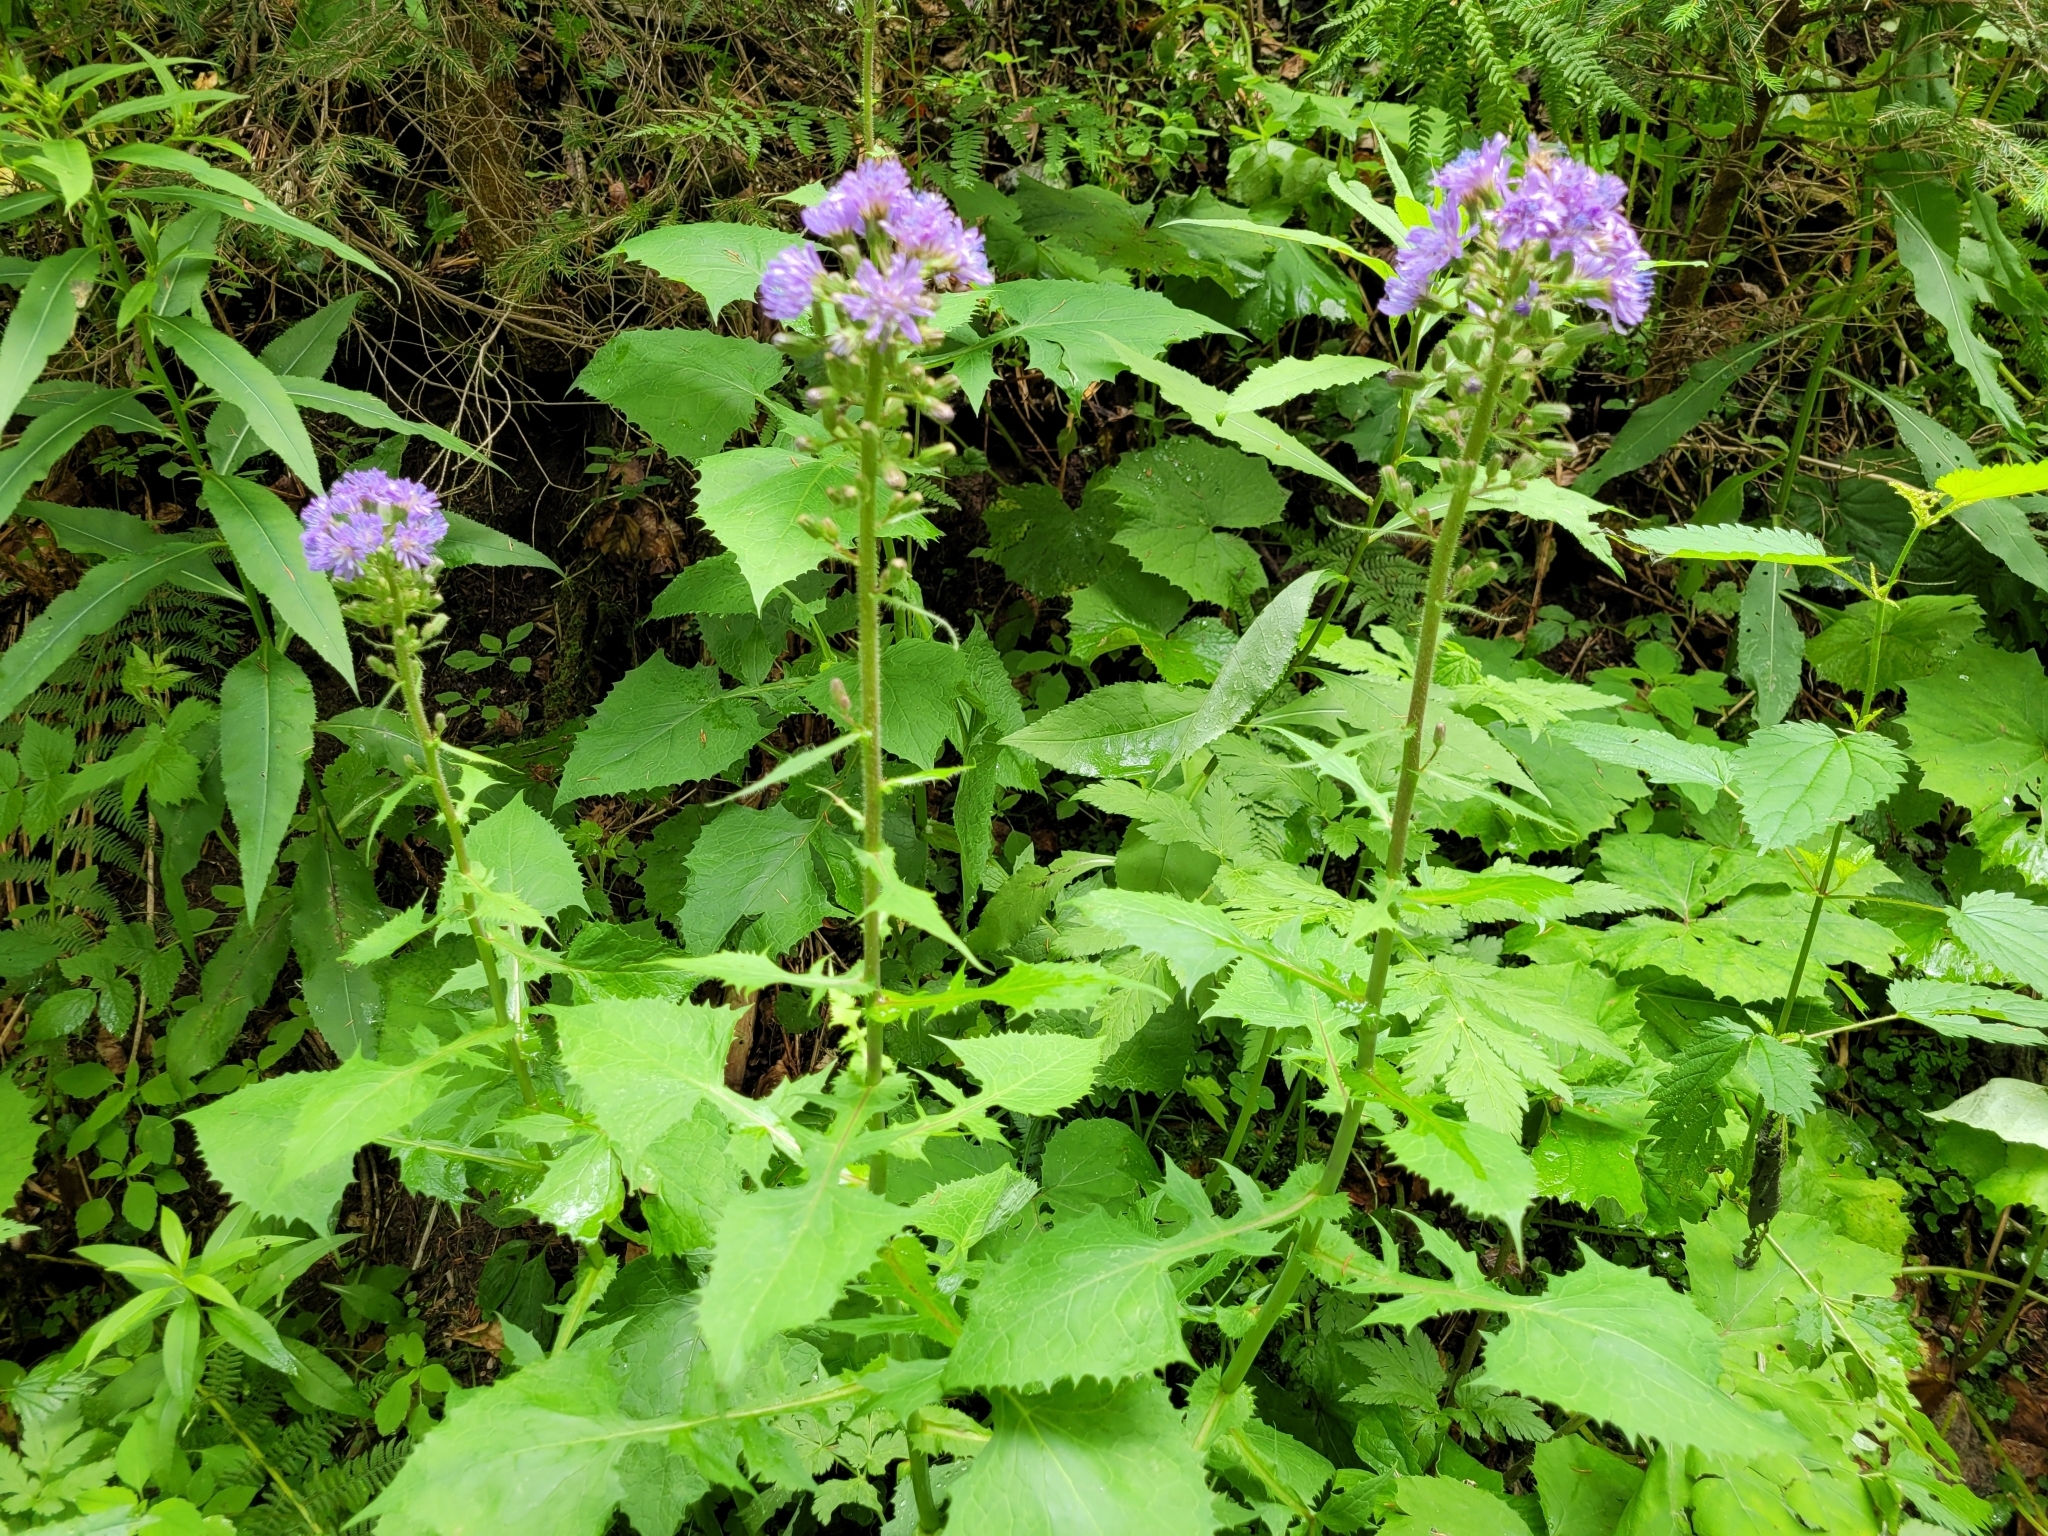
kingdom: Plantae
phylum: Tracheophyta
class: Magnoliopsida
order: Asterales
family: Asteraceae
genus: Cicerbita
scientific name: Cicerbita alpina
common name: Alpine blue-sow-thistle
